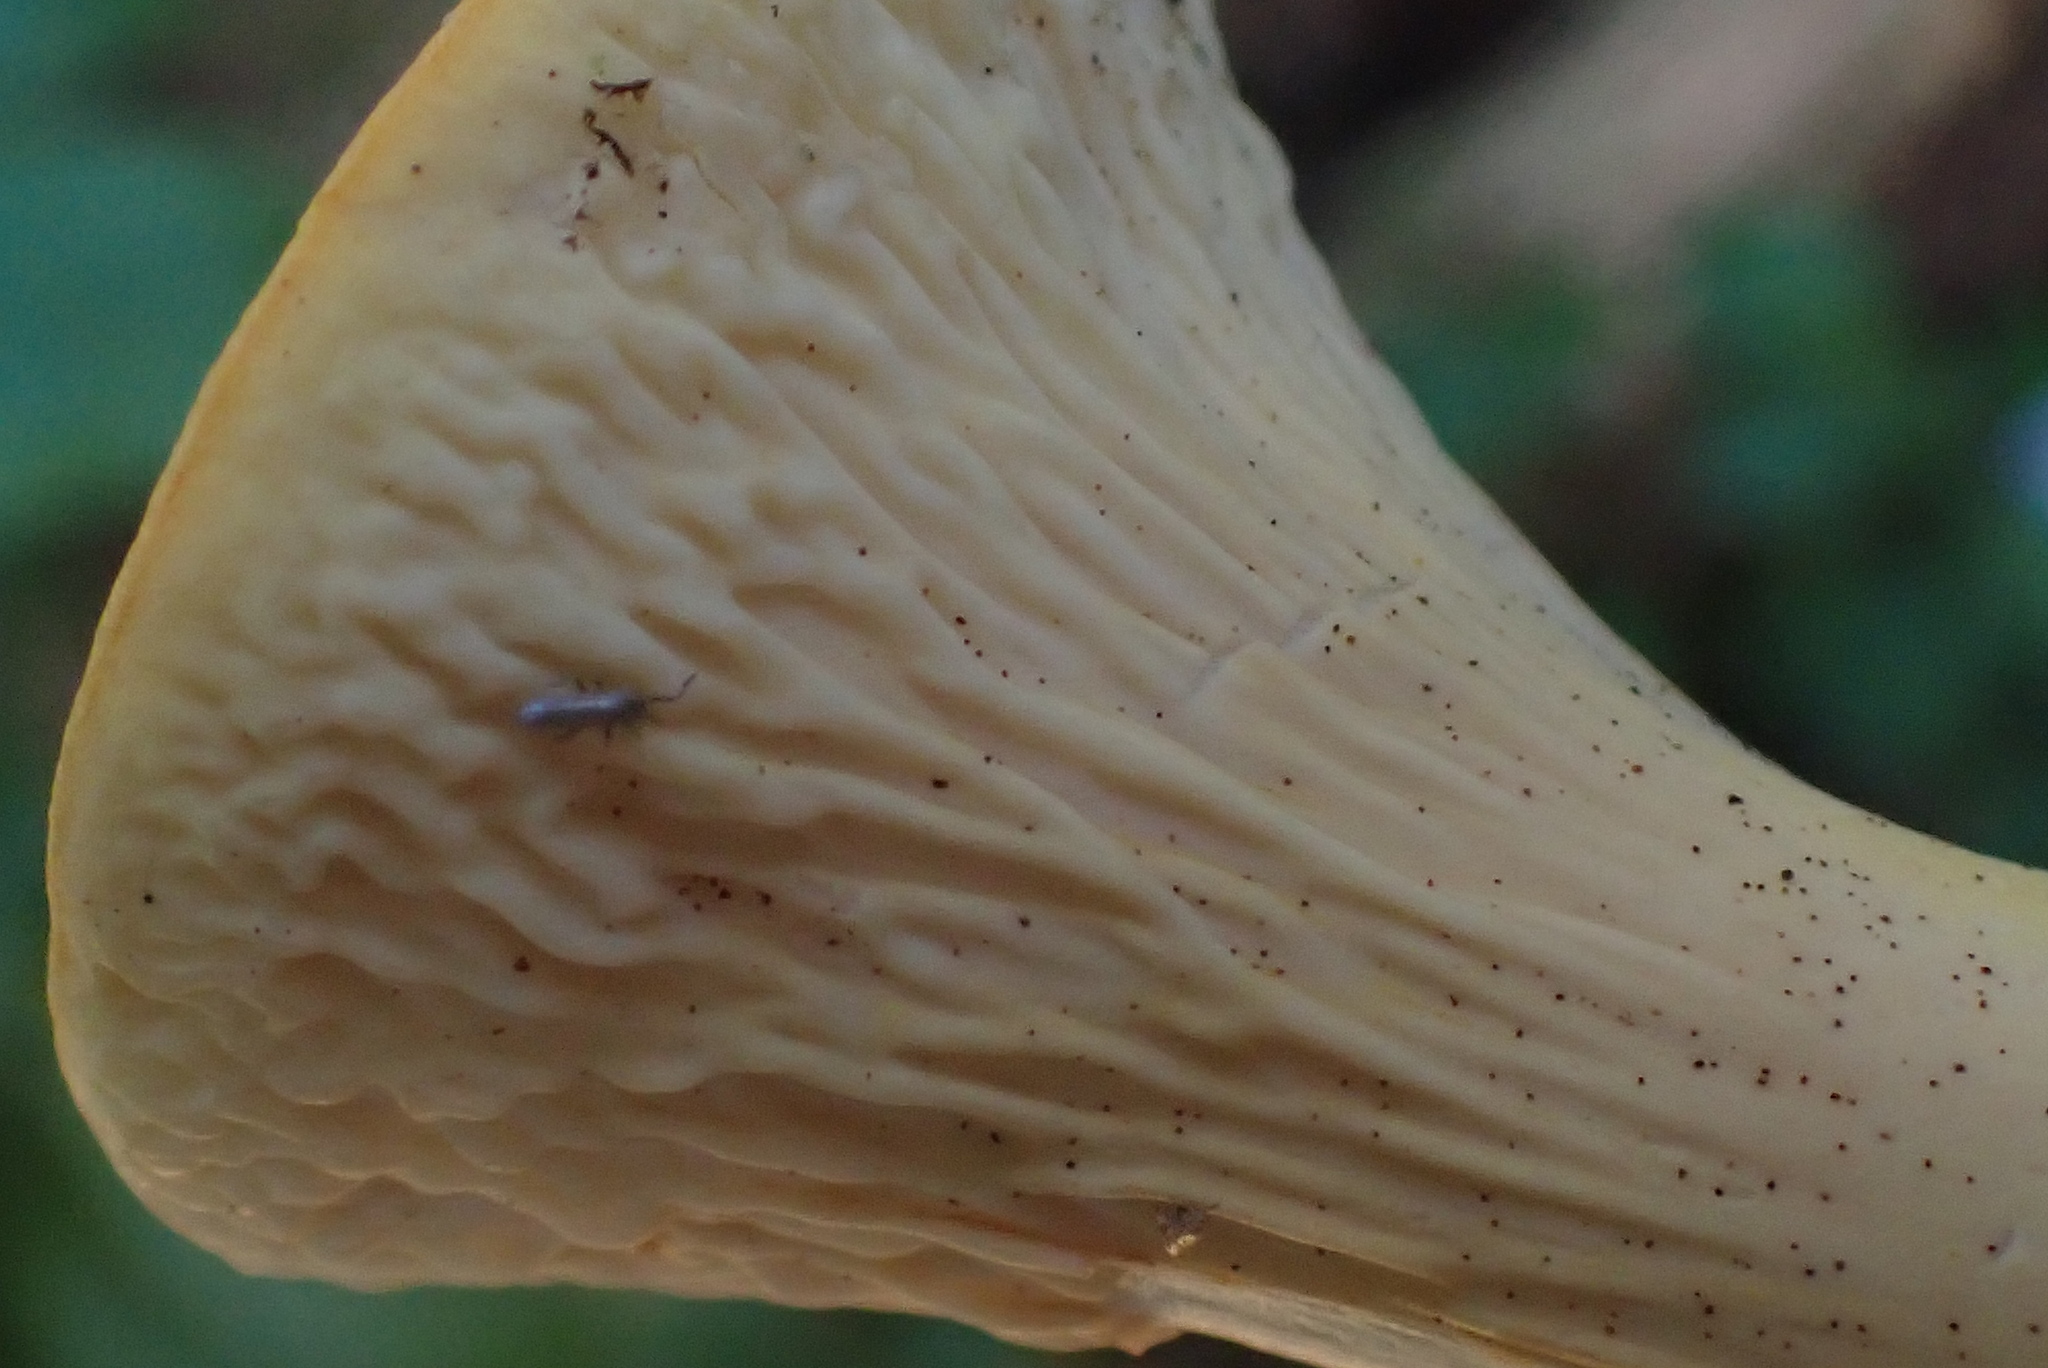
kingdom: Fungi
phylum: Basidiomycota
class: Agaricomycetes
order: Gomphales
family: Gomphaceae
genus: Turbinellus
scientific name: Turbinellus floccosus
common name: Scaly chanterelle
